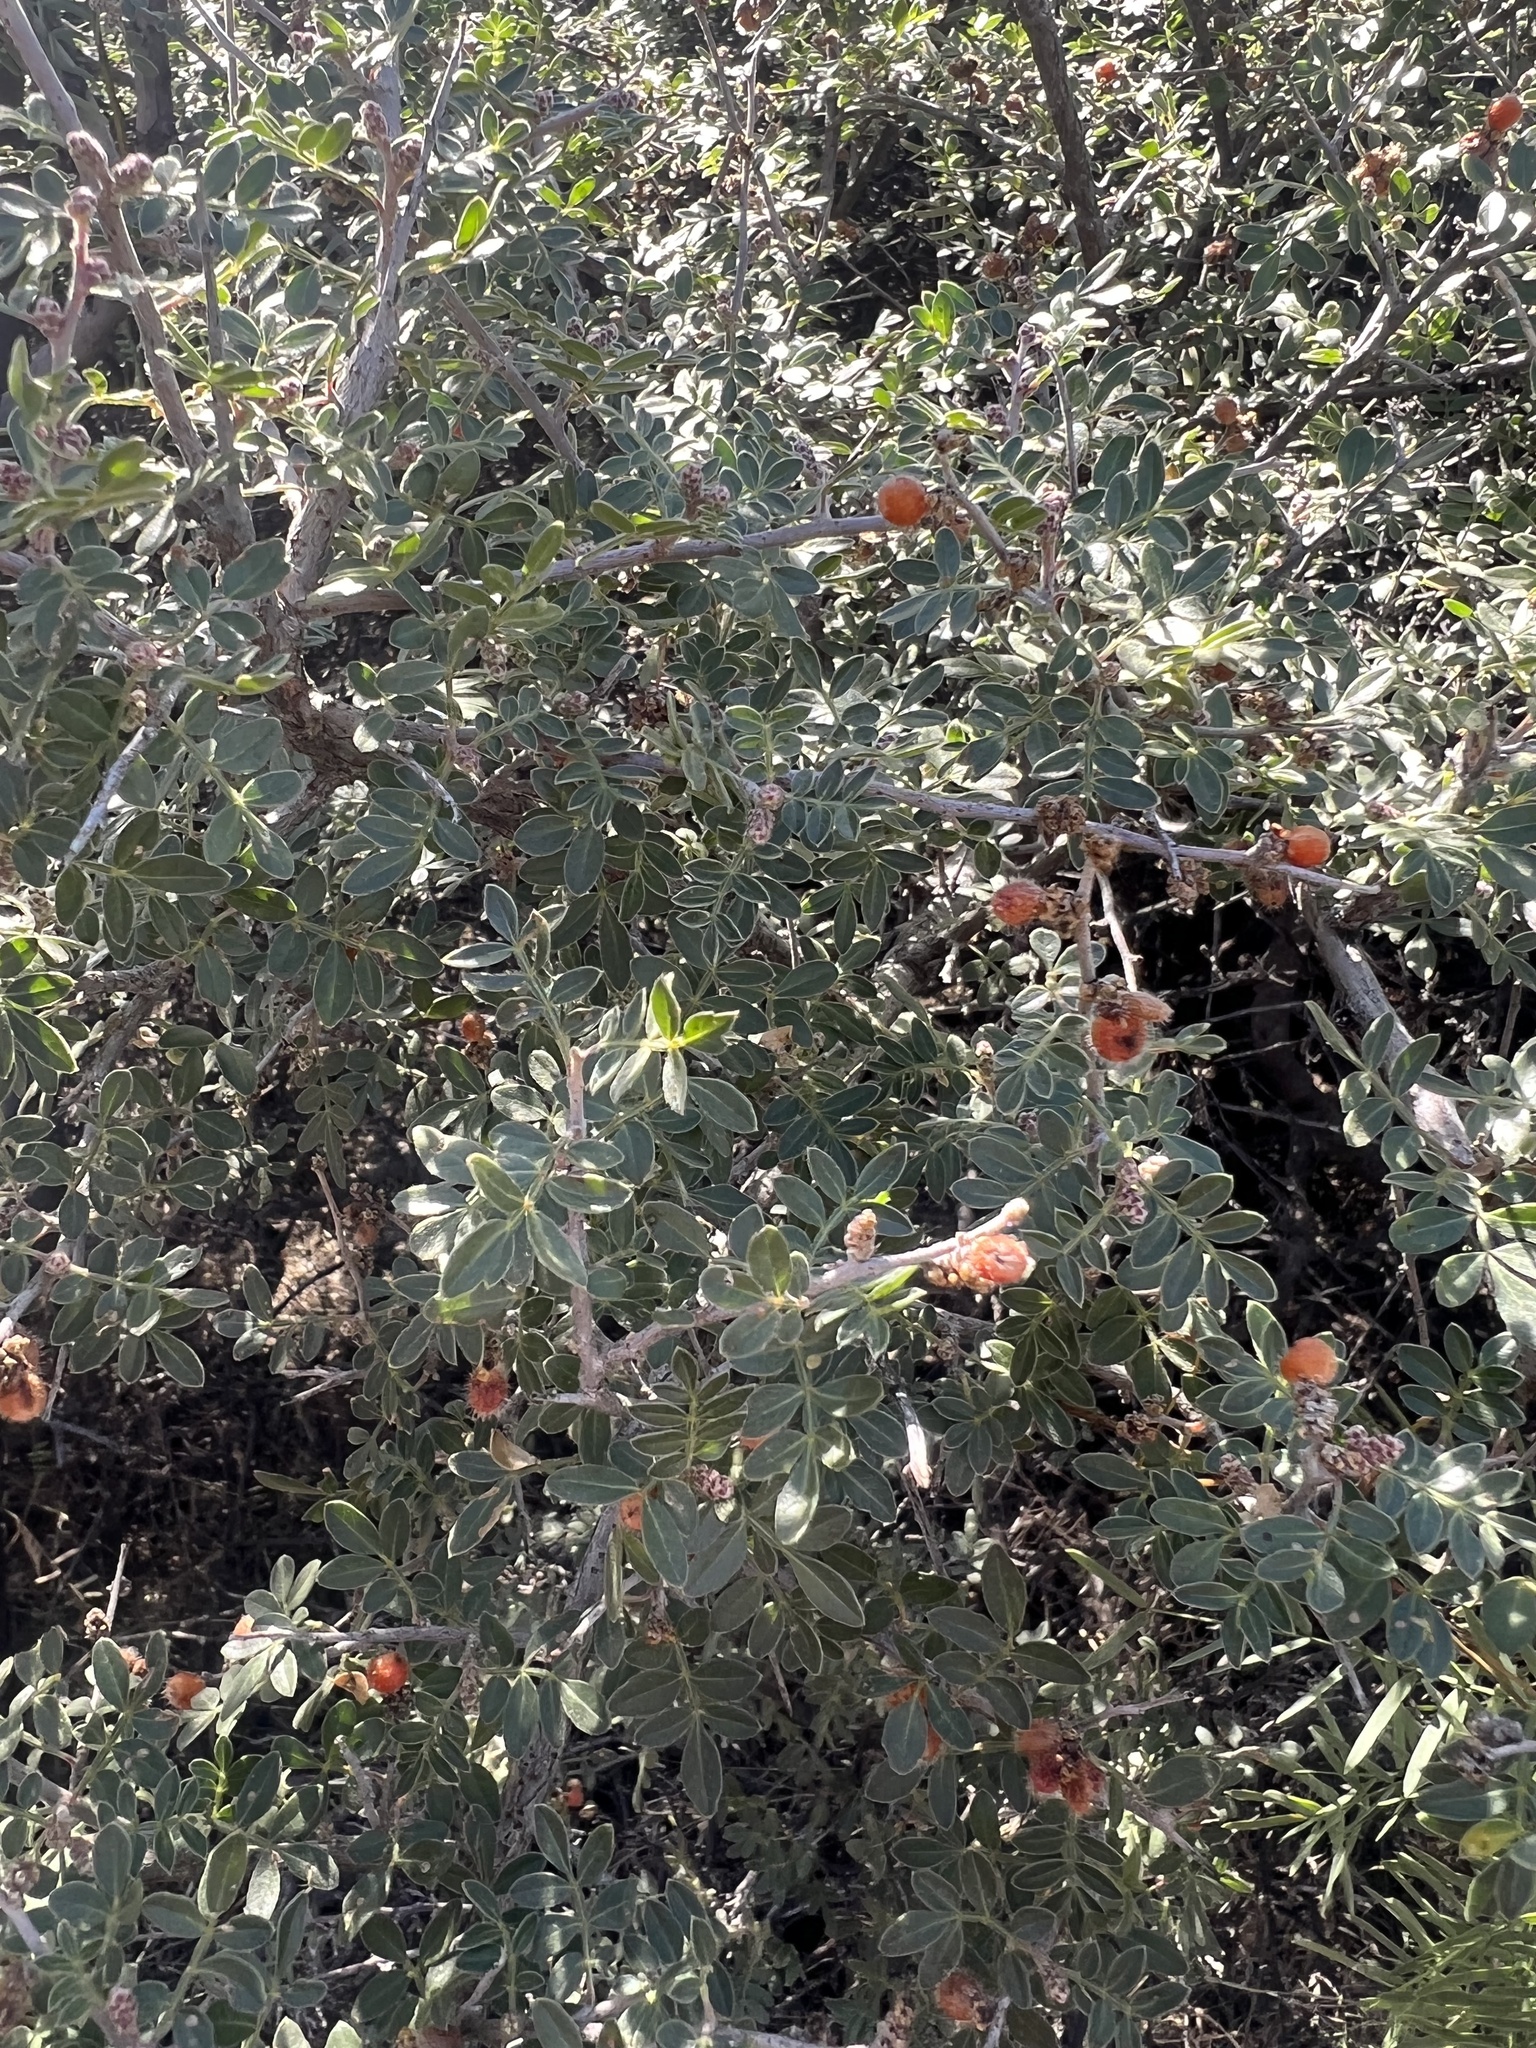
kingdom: Plantae
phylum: Tracheophyta
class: Magnoliopsida
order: Sapindales
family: Anacardiaceae
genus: Rhus
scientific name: Rhus microphylla
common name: Desert sumac
